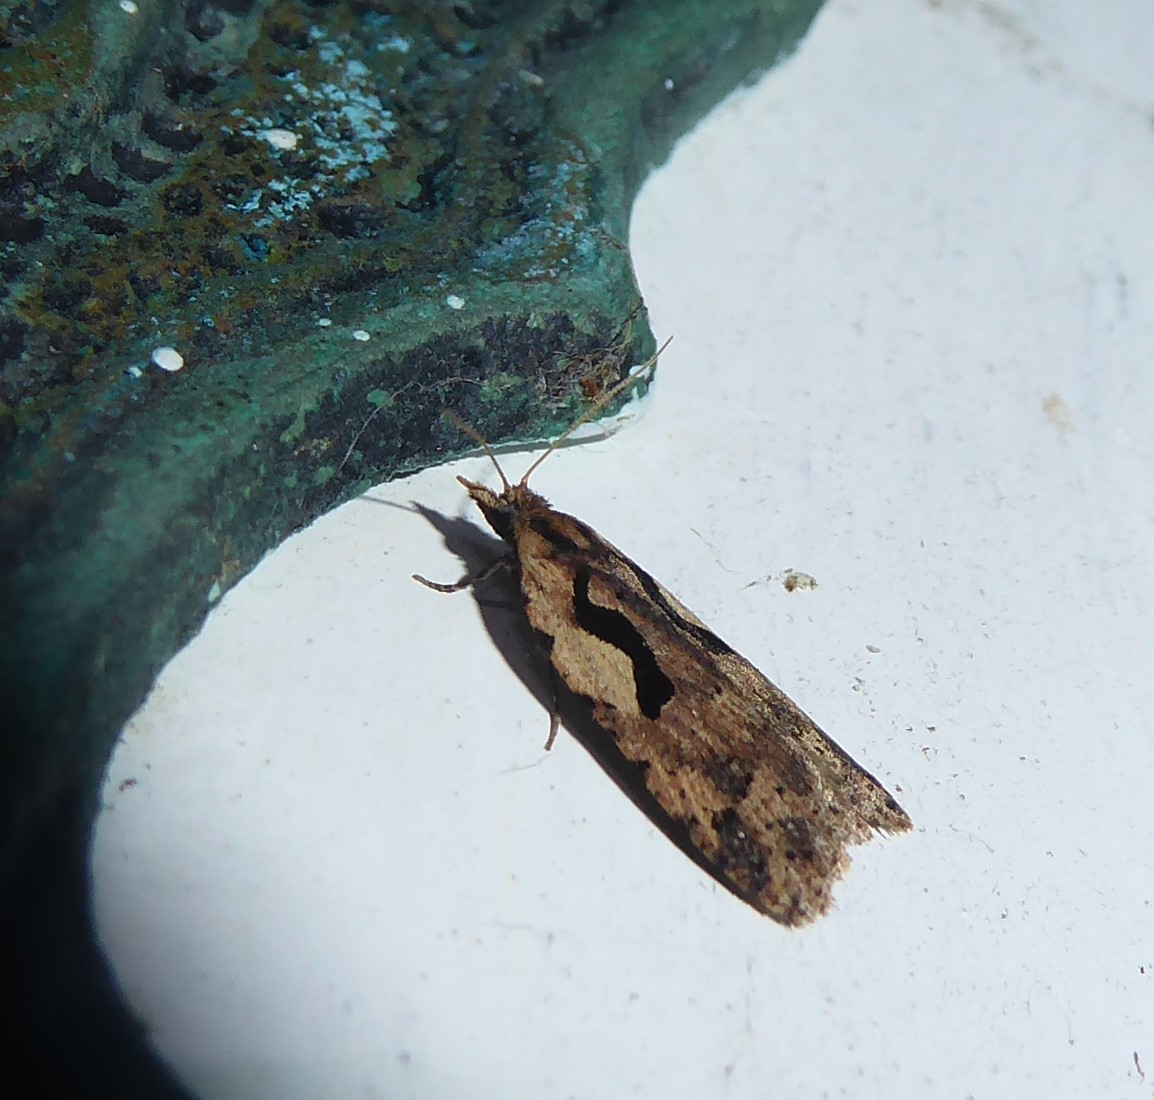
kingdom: Animalia
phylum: Arthropoda
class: Insecta
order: Lepidoptera
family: Tortricidae
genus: Cnephasia
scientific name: Cnephasia jactatana
